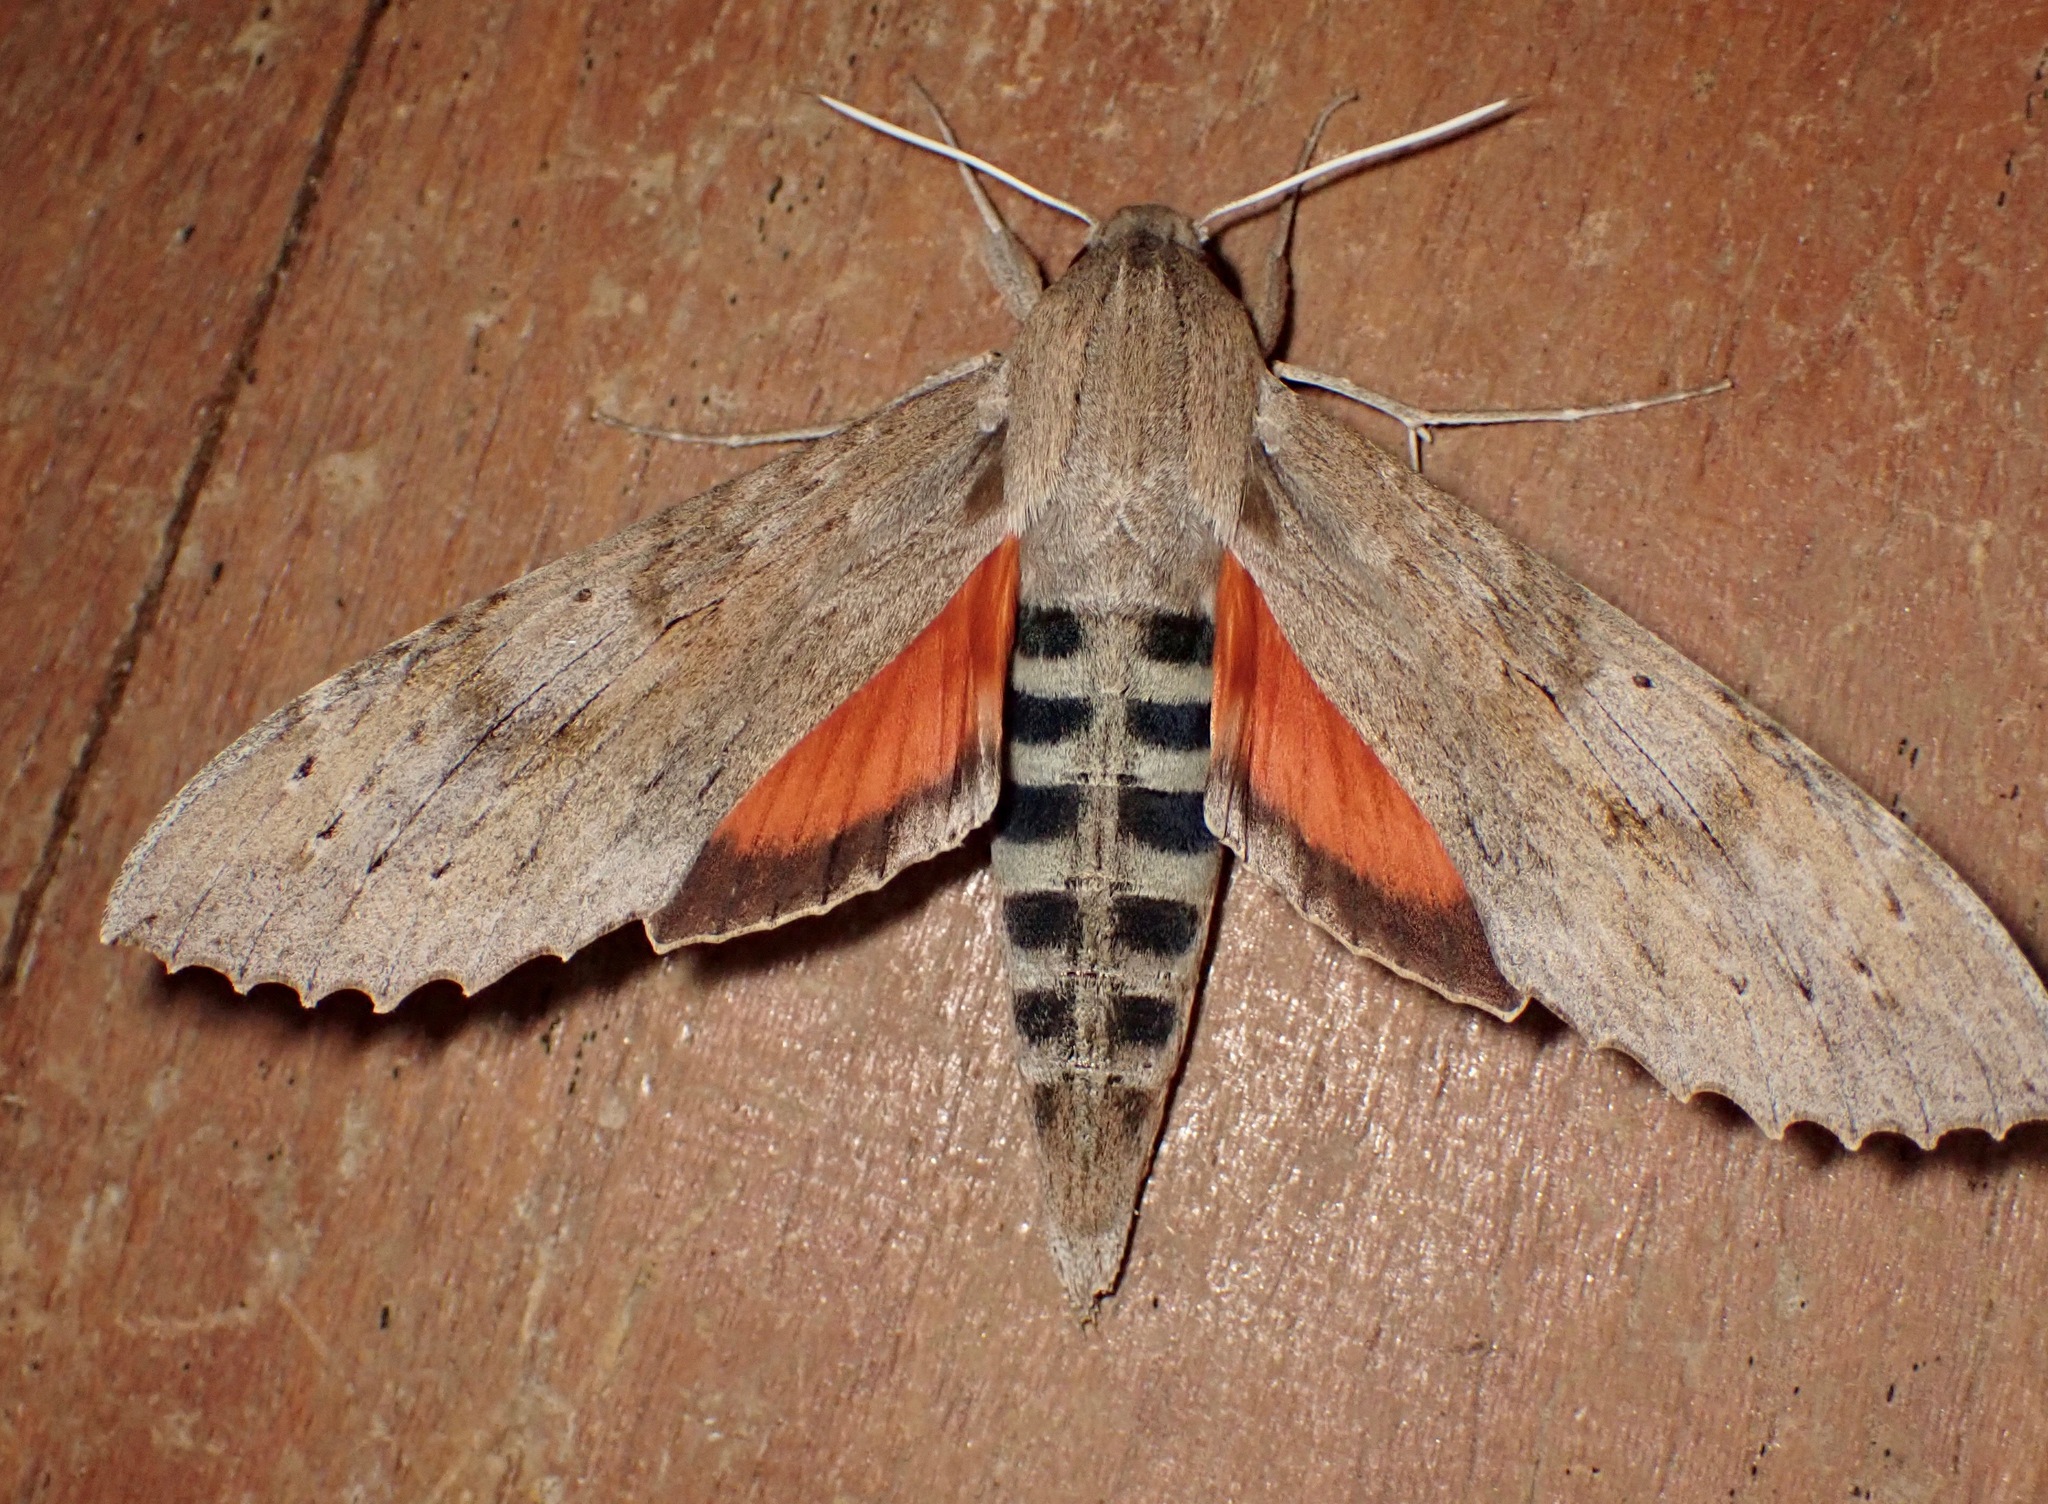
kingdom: Animalia
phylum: Arthropoda
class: Insecta
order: Lepidoptera
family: Sphingidae
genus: Erinnyis
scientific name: Erinnyis ello
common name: Ello sphinx
